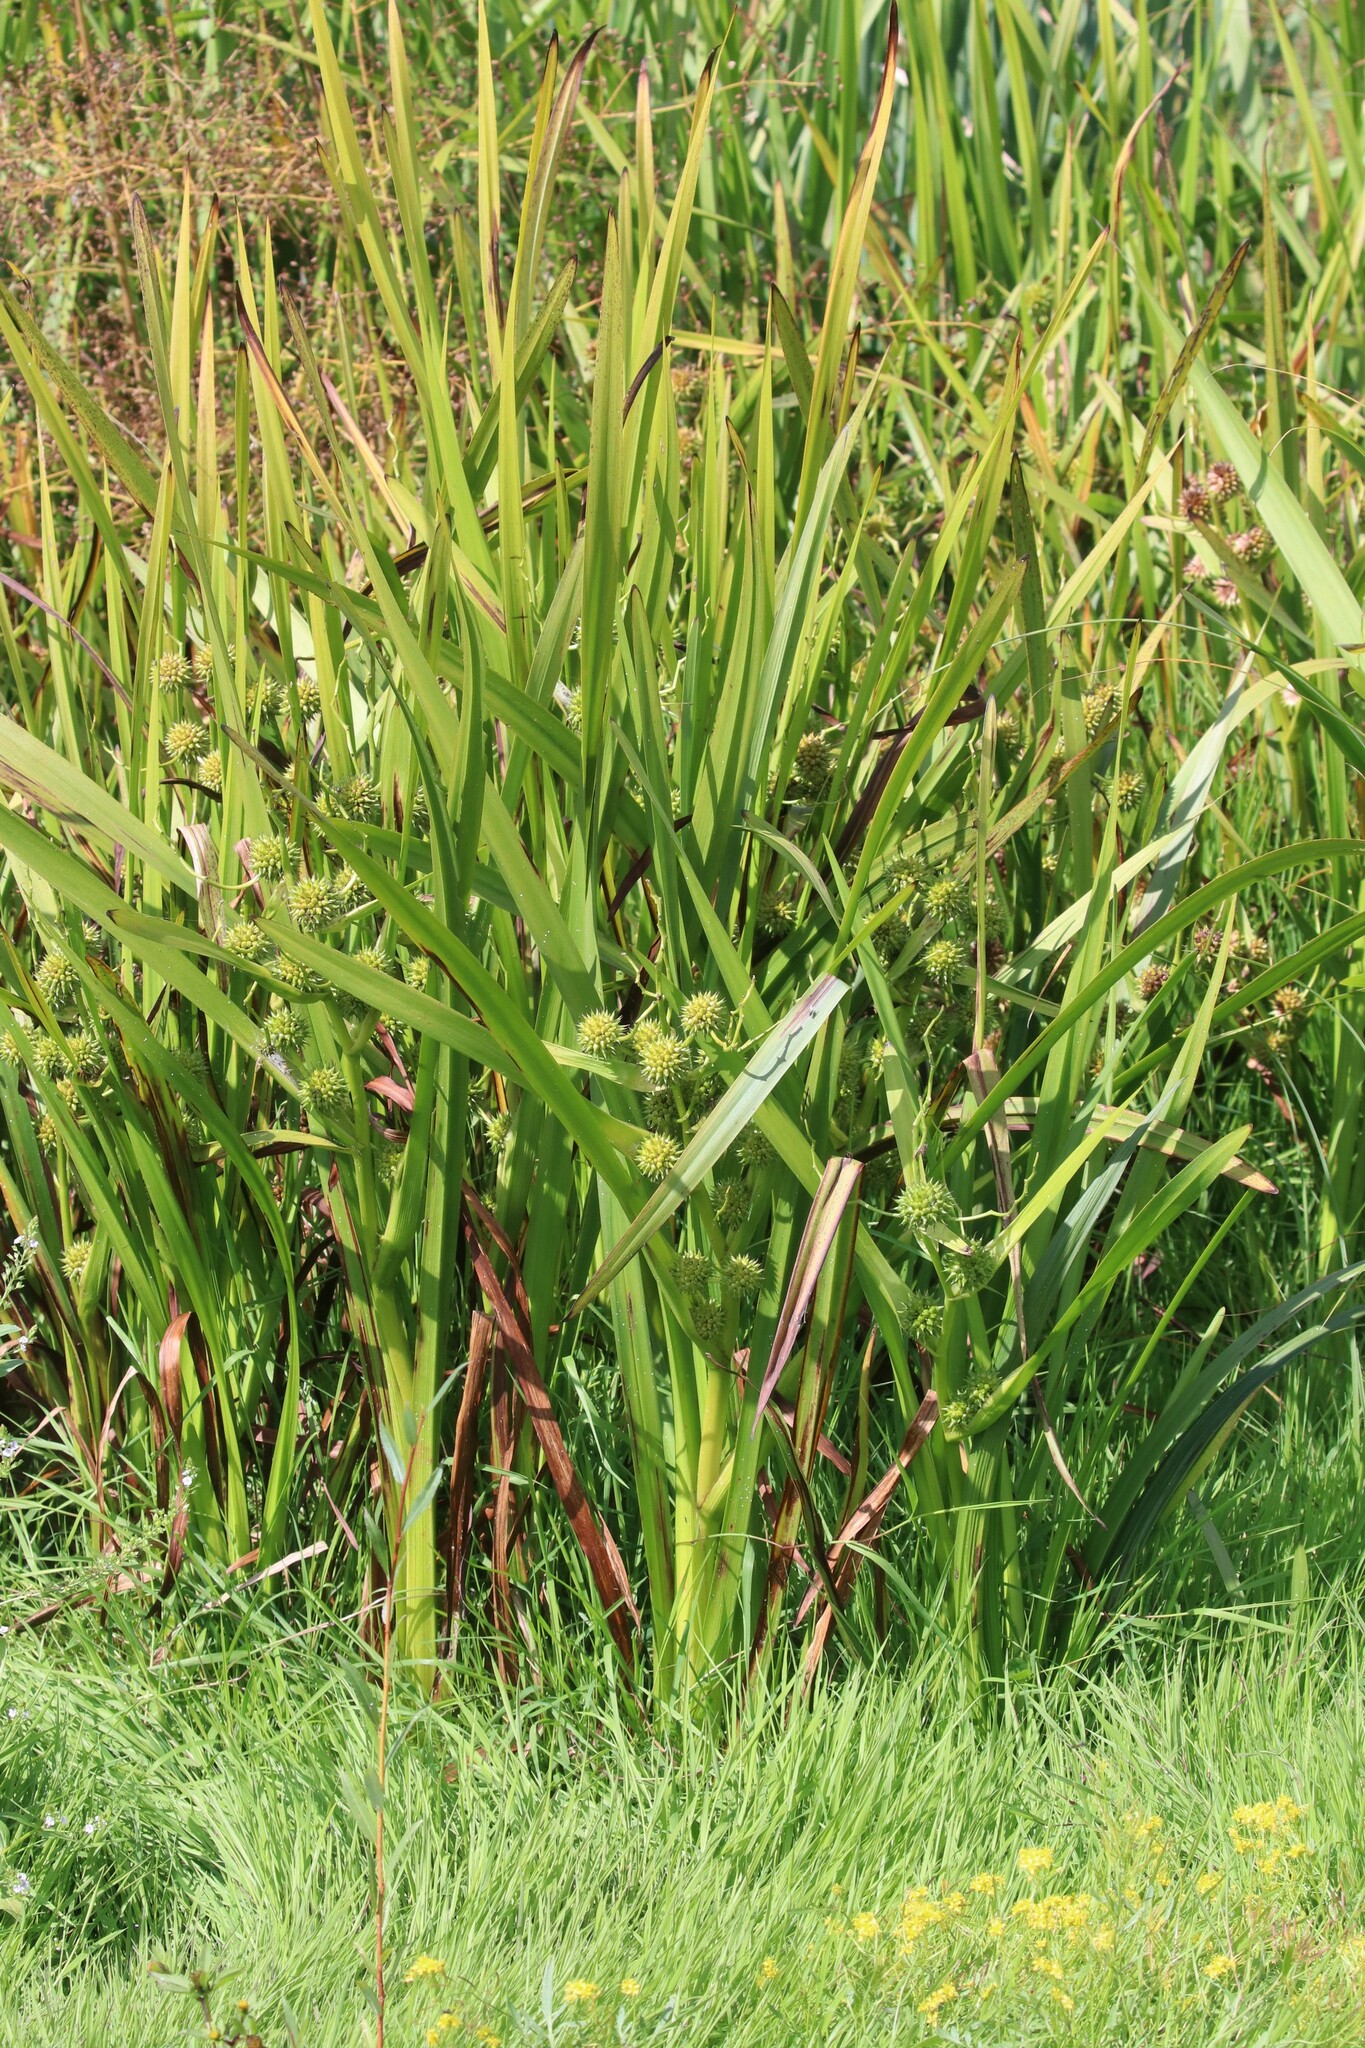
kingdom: Plantae
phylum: Tracheophyta
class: Liliopsida
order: Poales
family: Typhaceae
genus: Sparganium
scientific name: Sparganium erectum
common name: Branched bur-reed
